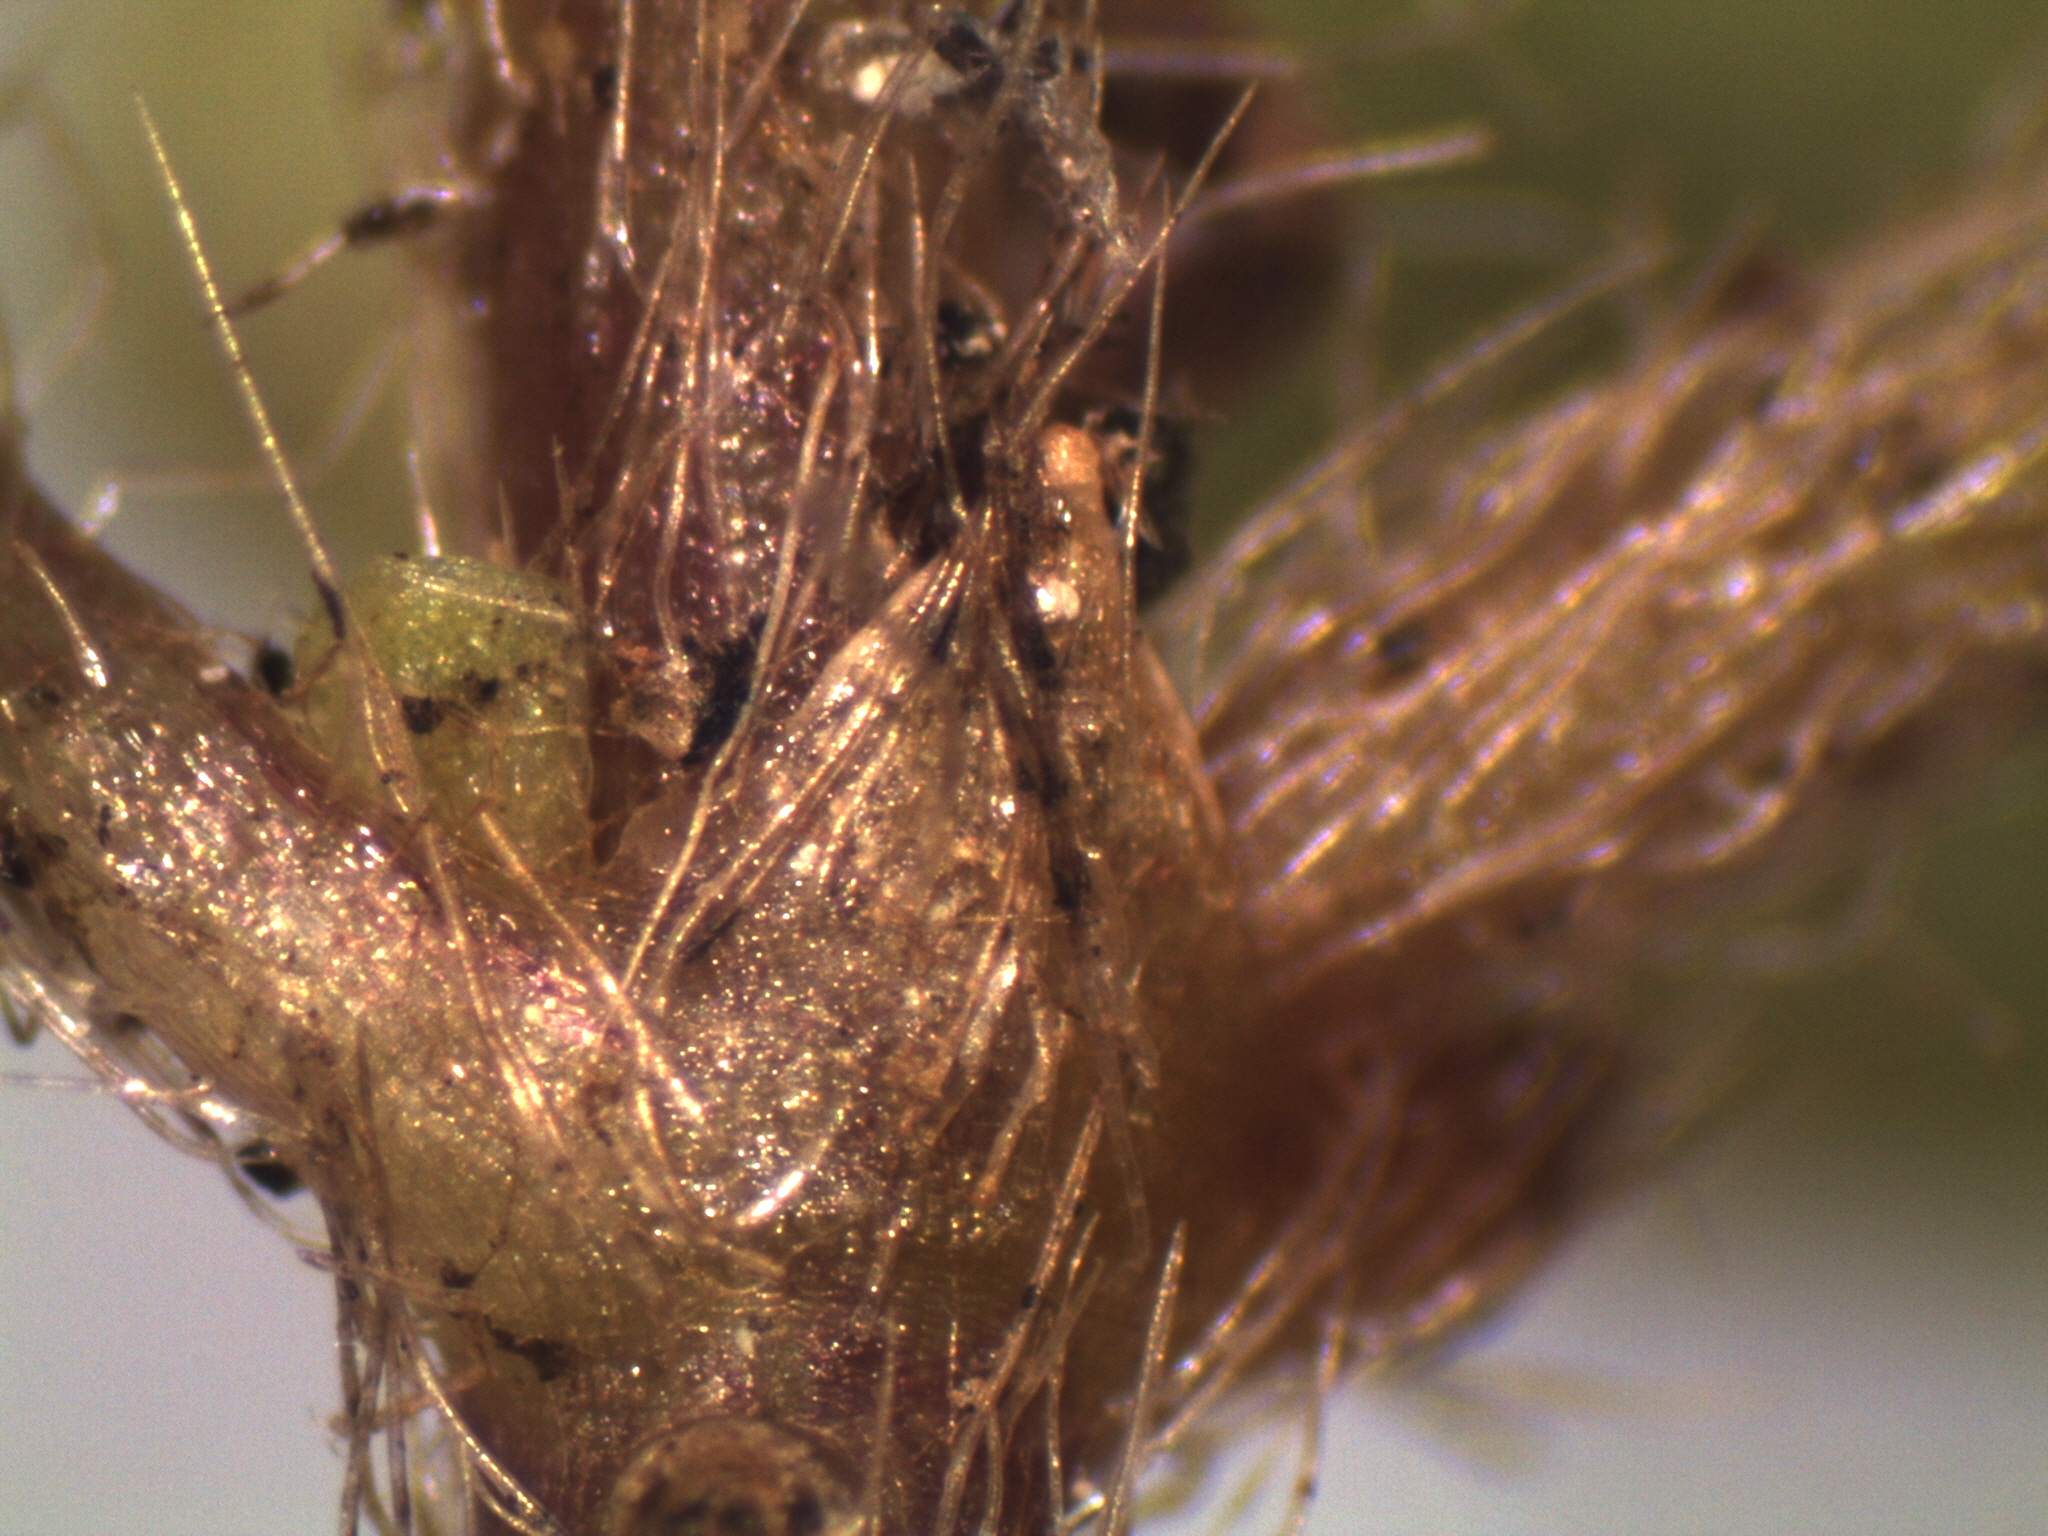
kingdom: Plantae
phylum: Tracheophyta
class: Magnoliopsida
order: Gentianales
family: Rubiaceae
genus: Nertera
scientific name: Nertera villosa
